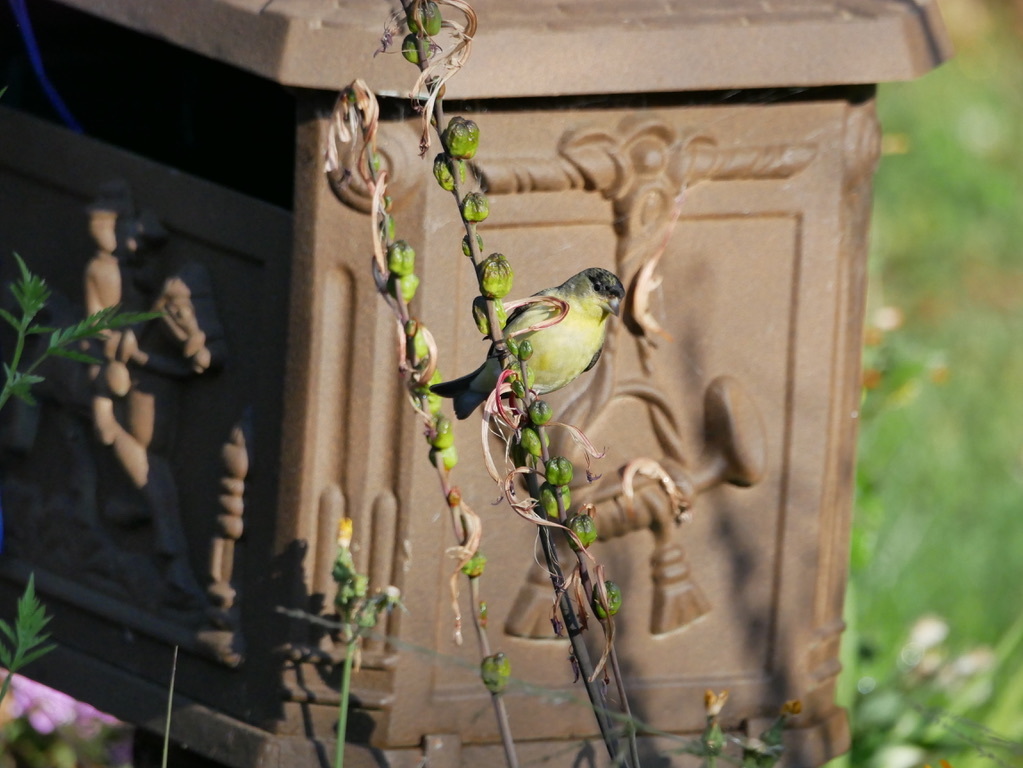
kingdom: Animalia
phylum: Chordata
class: Aves
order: Passeriformes
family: Fringillidae
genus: Spinus
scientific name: Spinus psaltria
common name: Lesser goldfinch
